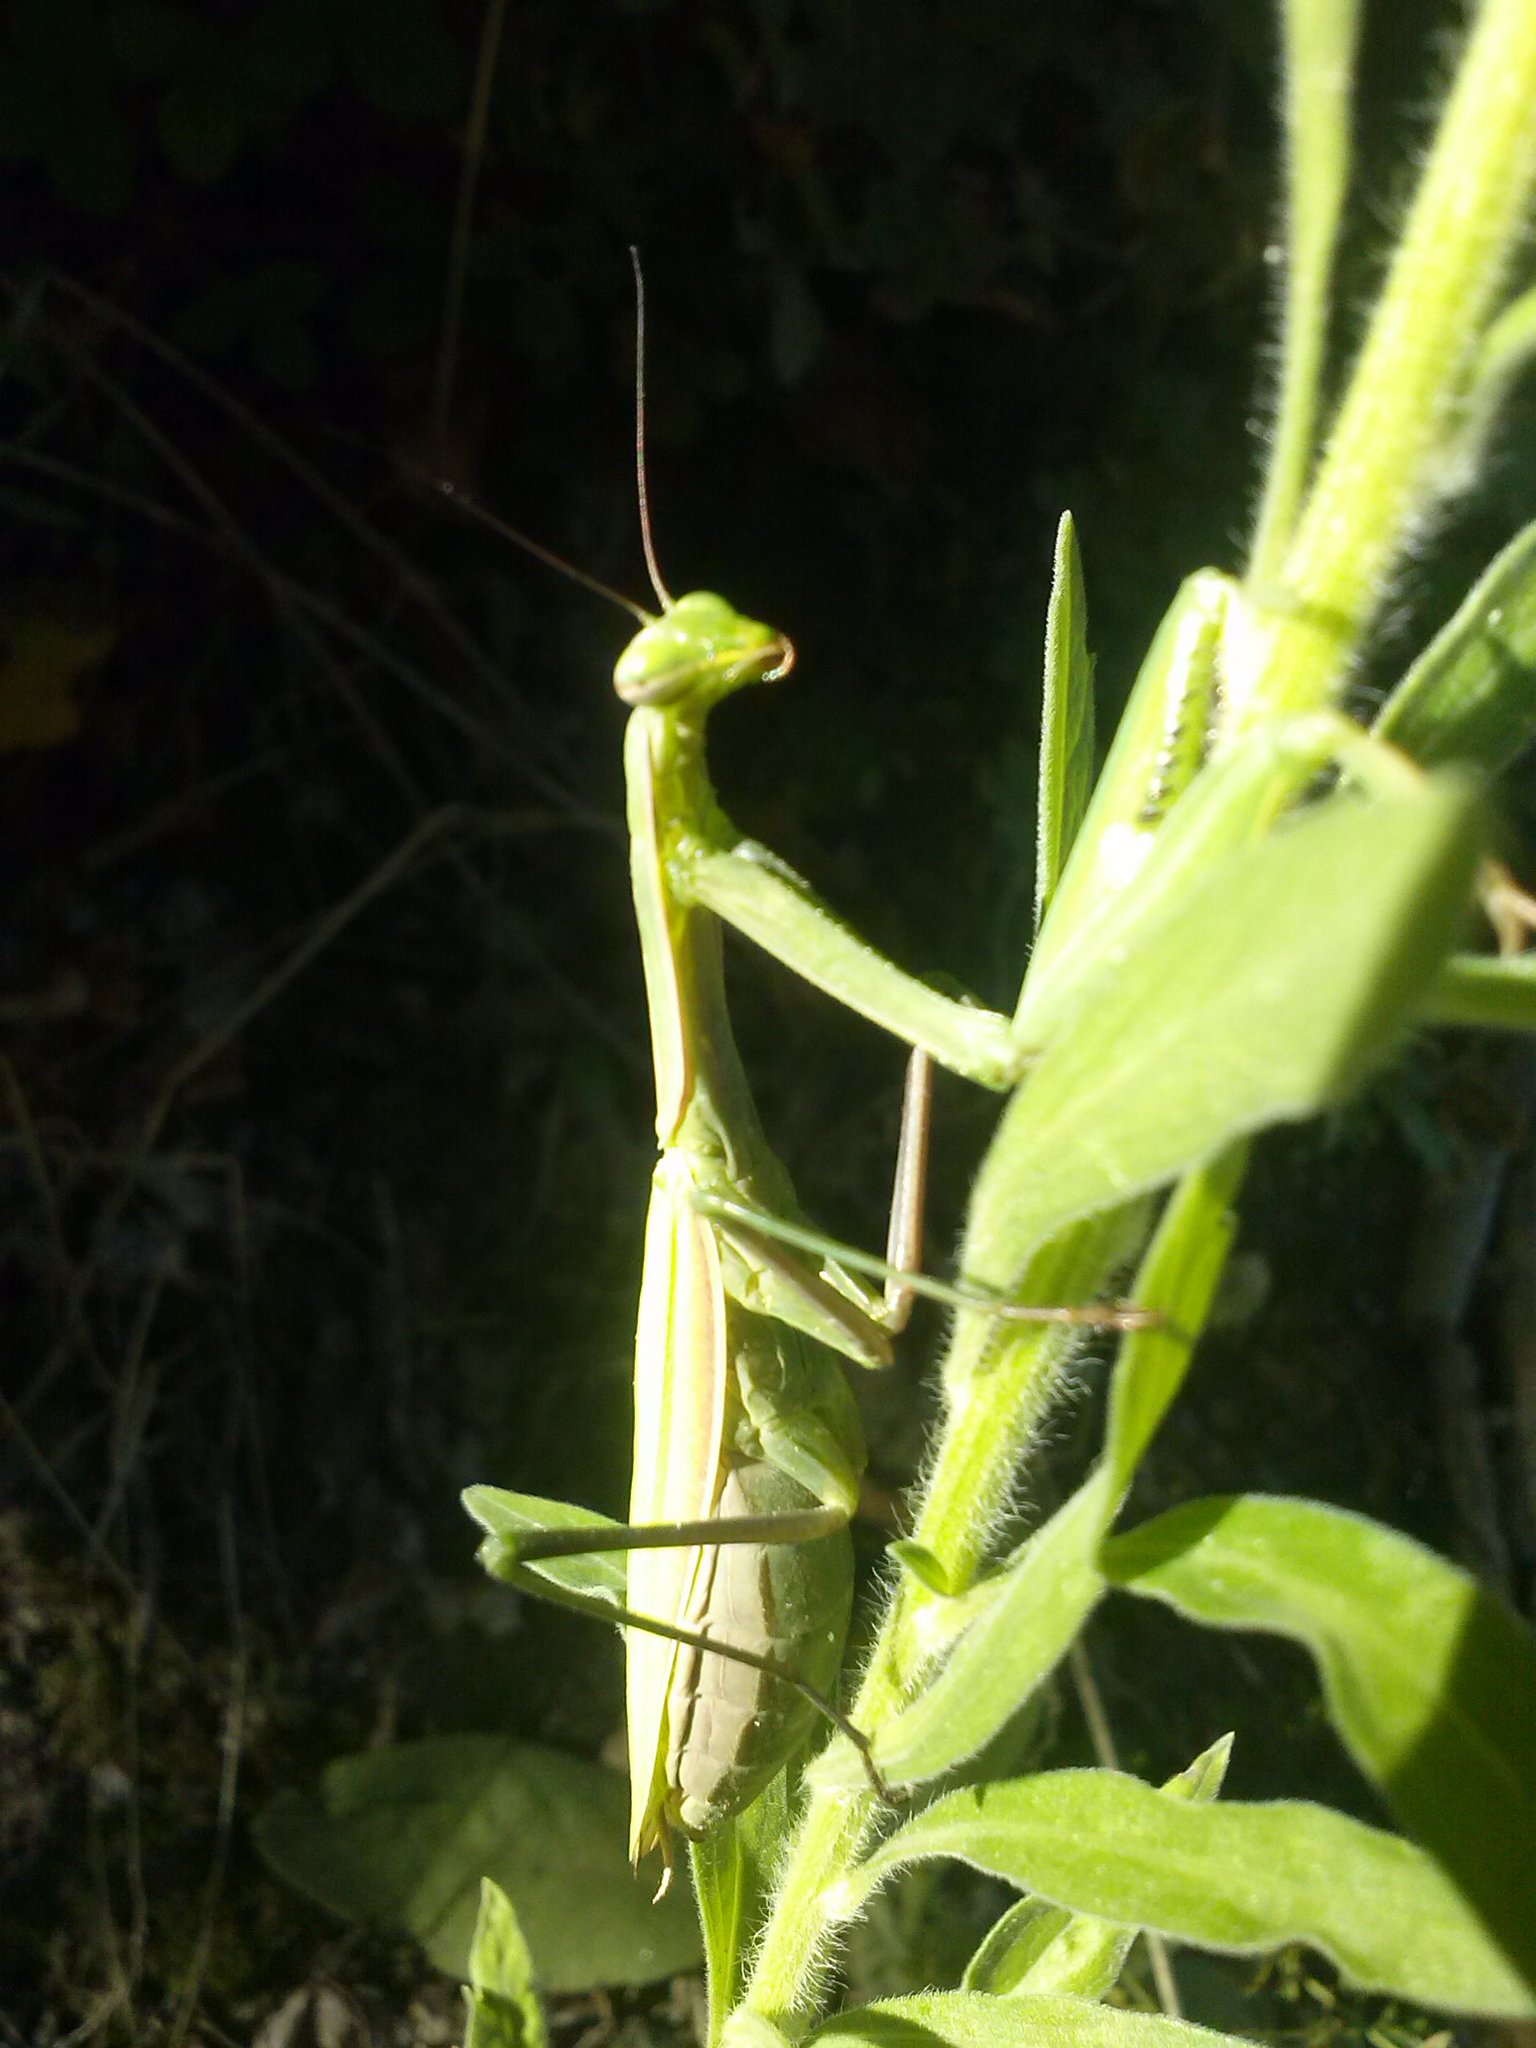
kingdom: Animalia
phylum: Arthropoda
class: Insecta
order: Mantodea
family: Mantidae
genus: Mantis
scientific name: Mantis religiosa
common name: Praying mantis
